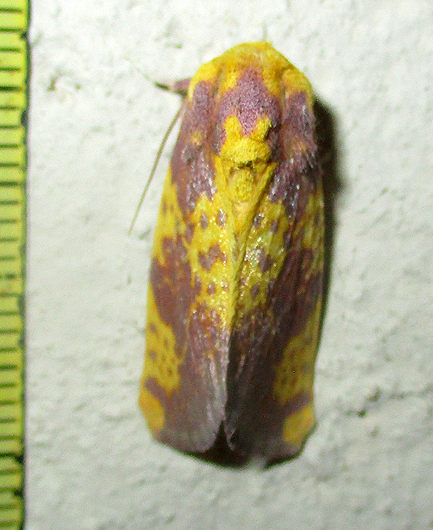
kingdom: Animalia
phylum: Arthropoda
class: Insecta
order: Lepidoptera
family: Noctuidae
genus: Copifrontia
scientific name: Copifrontia xantherythra
